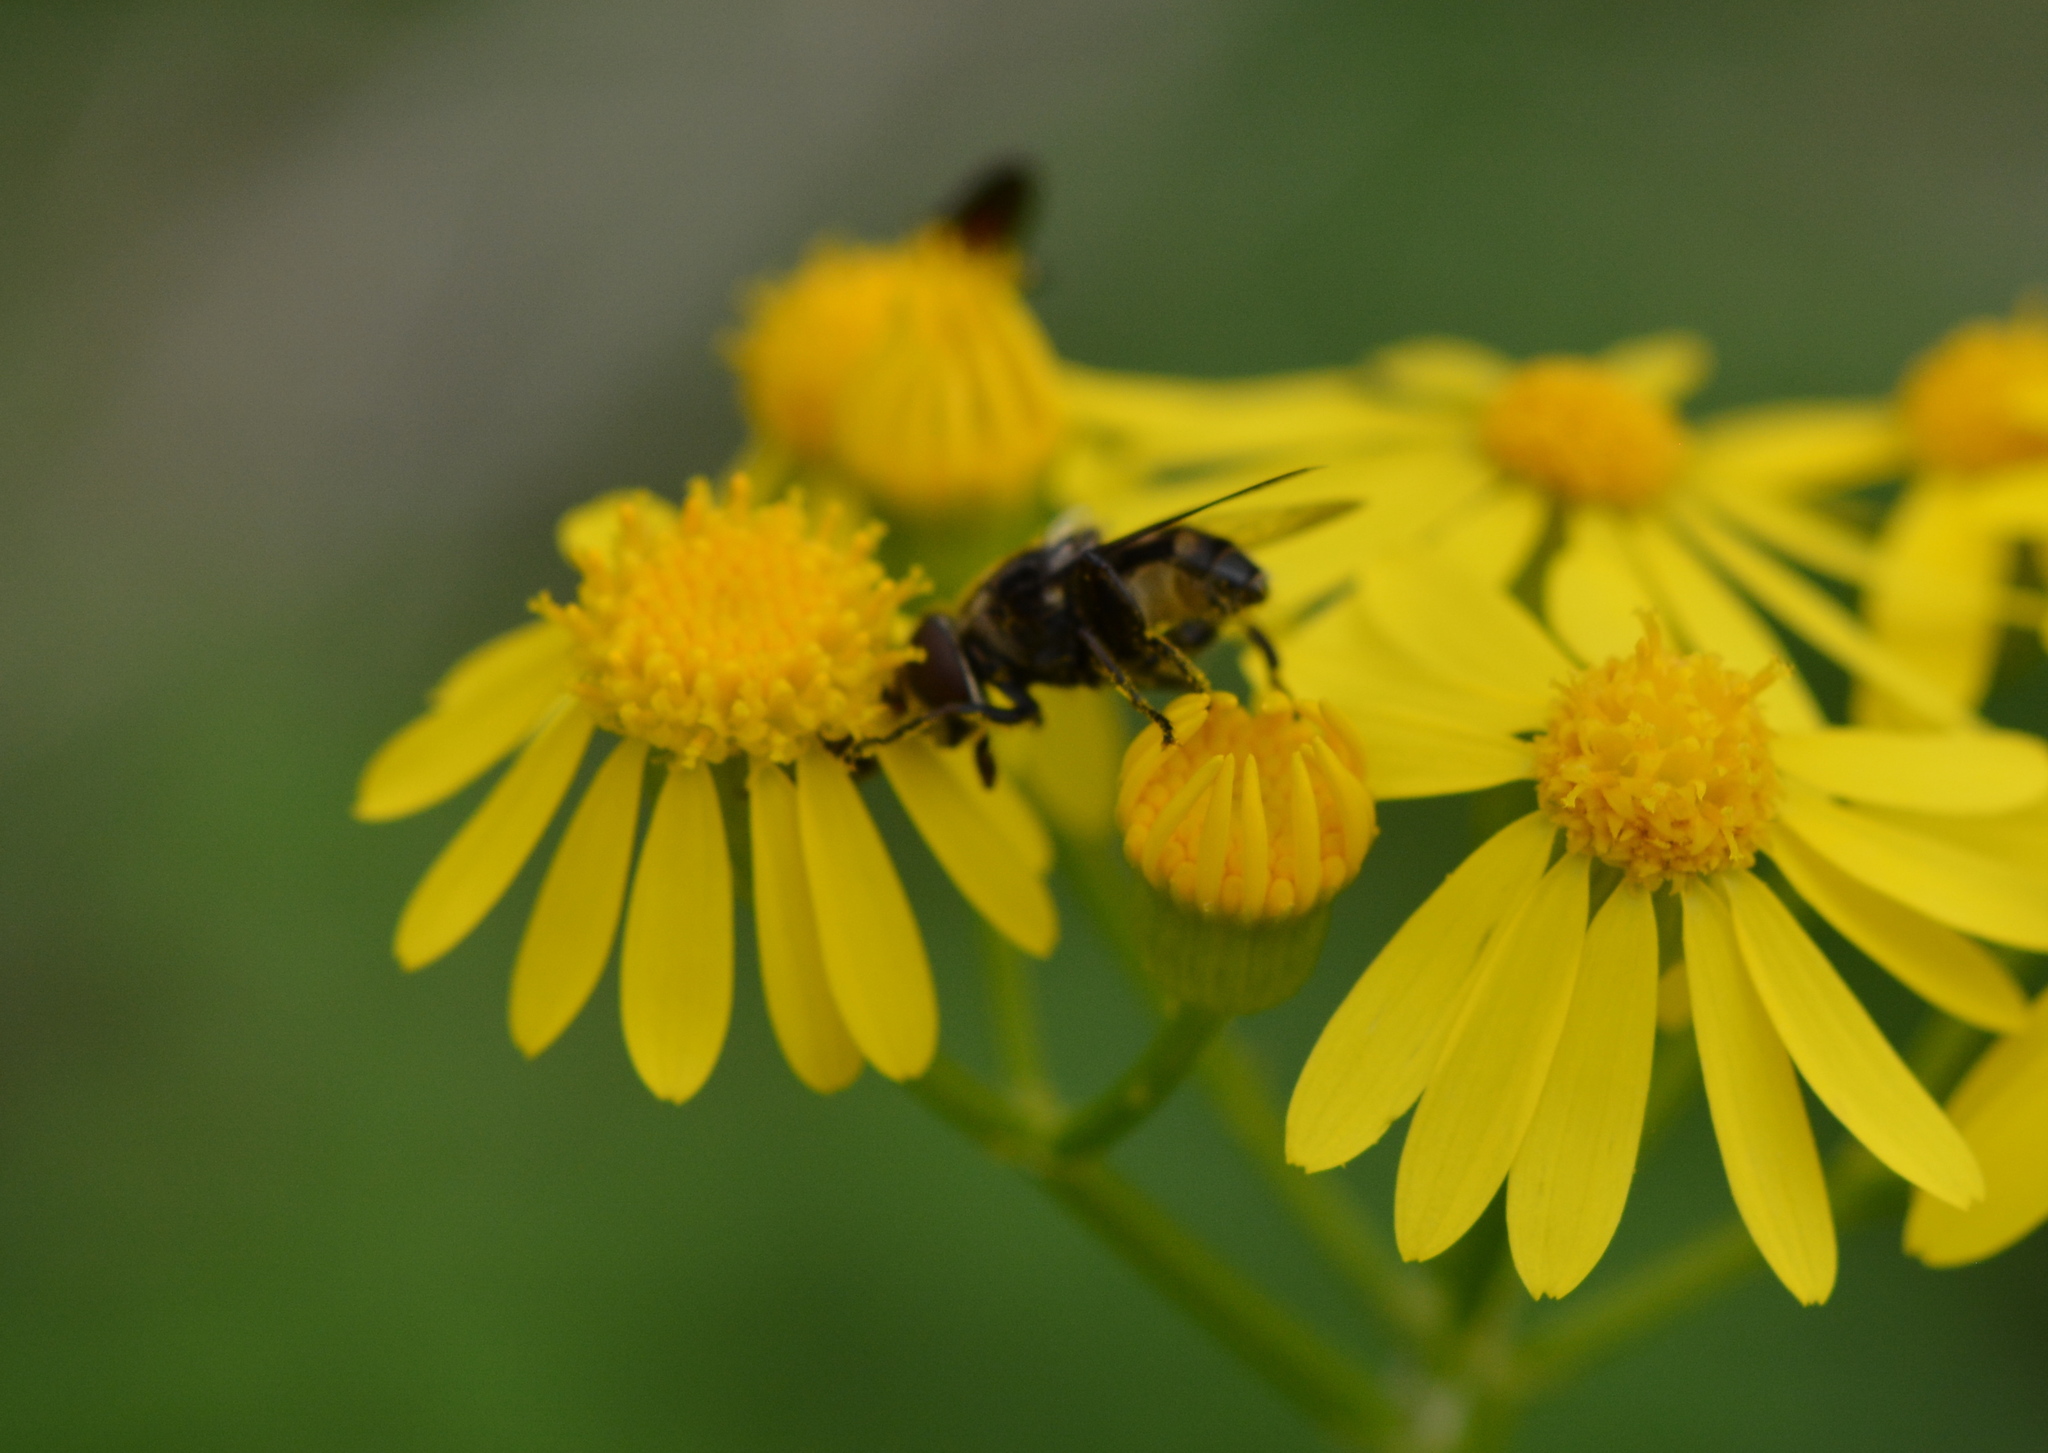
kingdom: Animalia
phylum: Arthropoda
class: Insecta
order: Diptera
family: Syrphidae
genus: Palpada
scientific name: Palpada furcata
